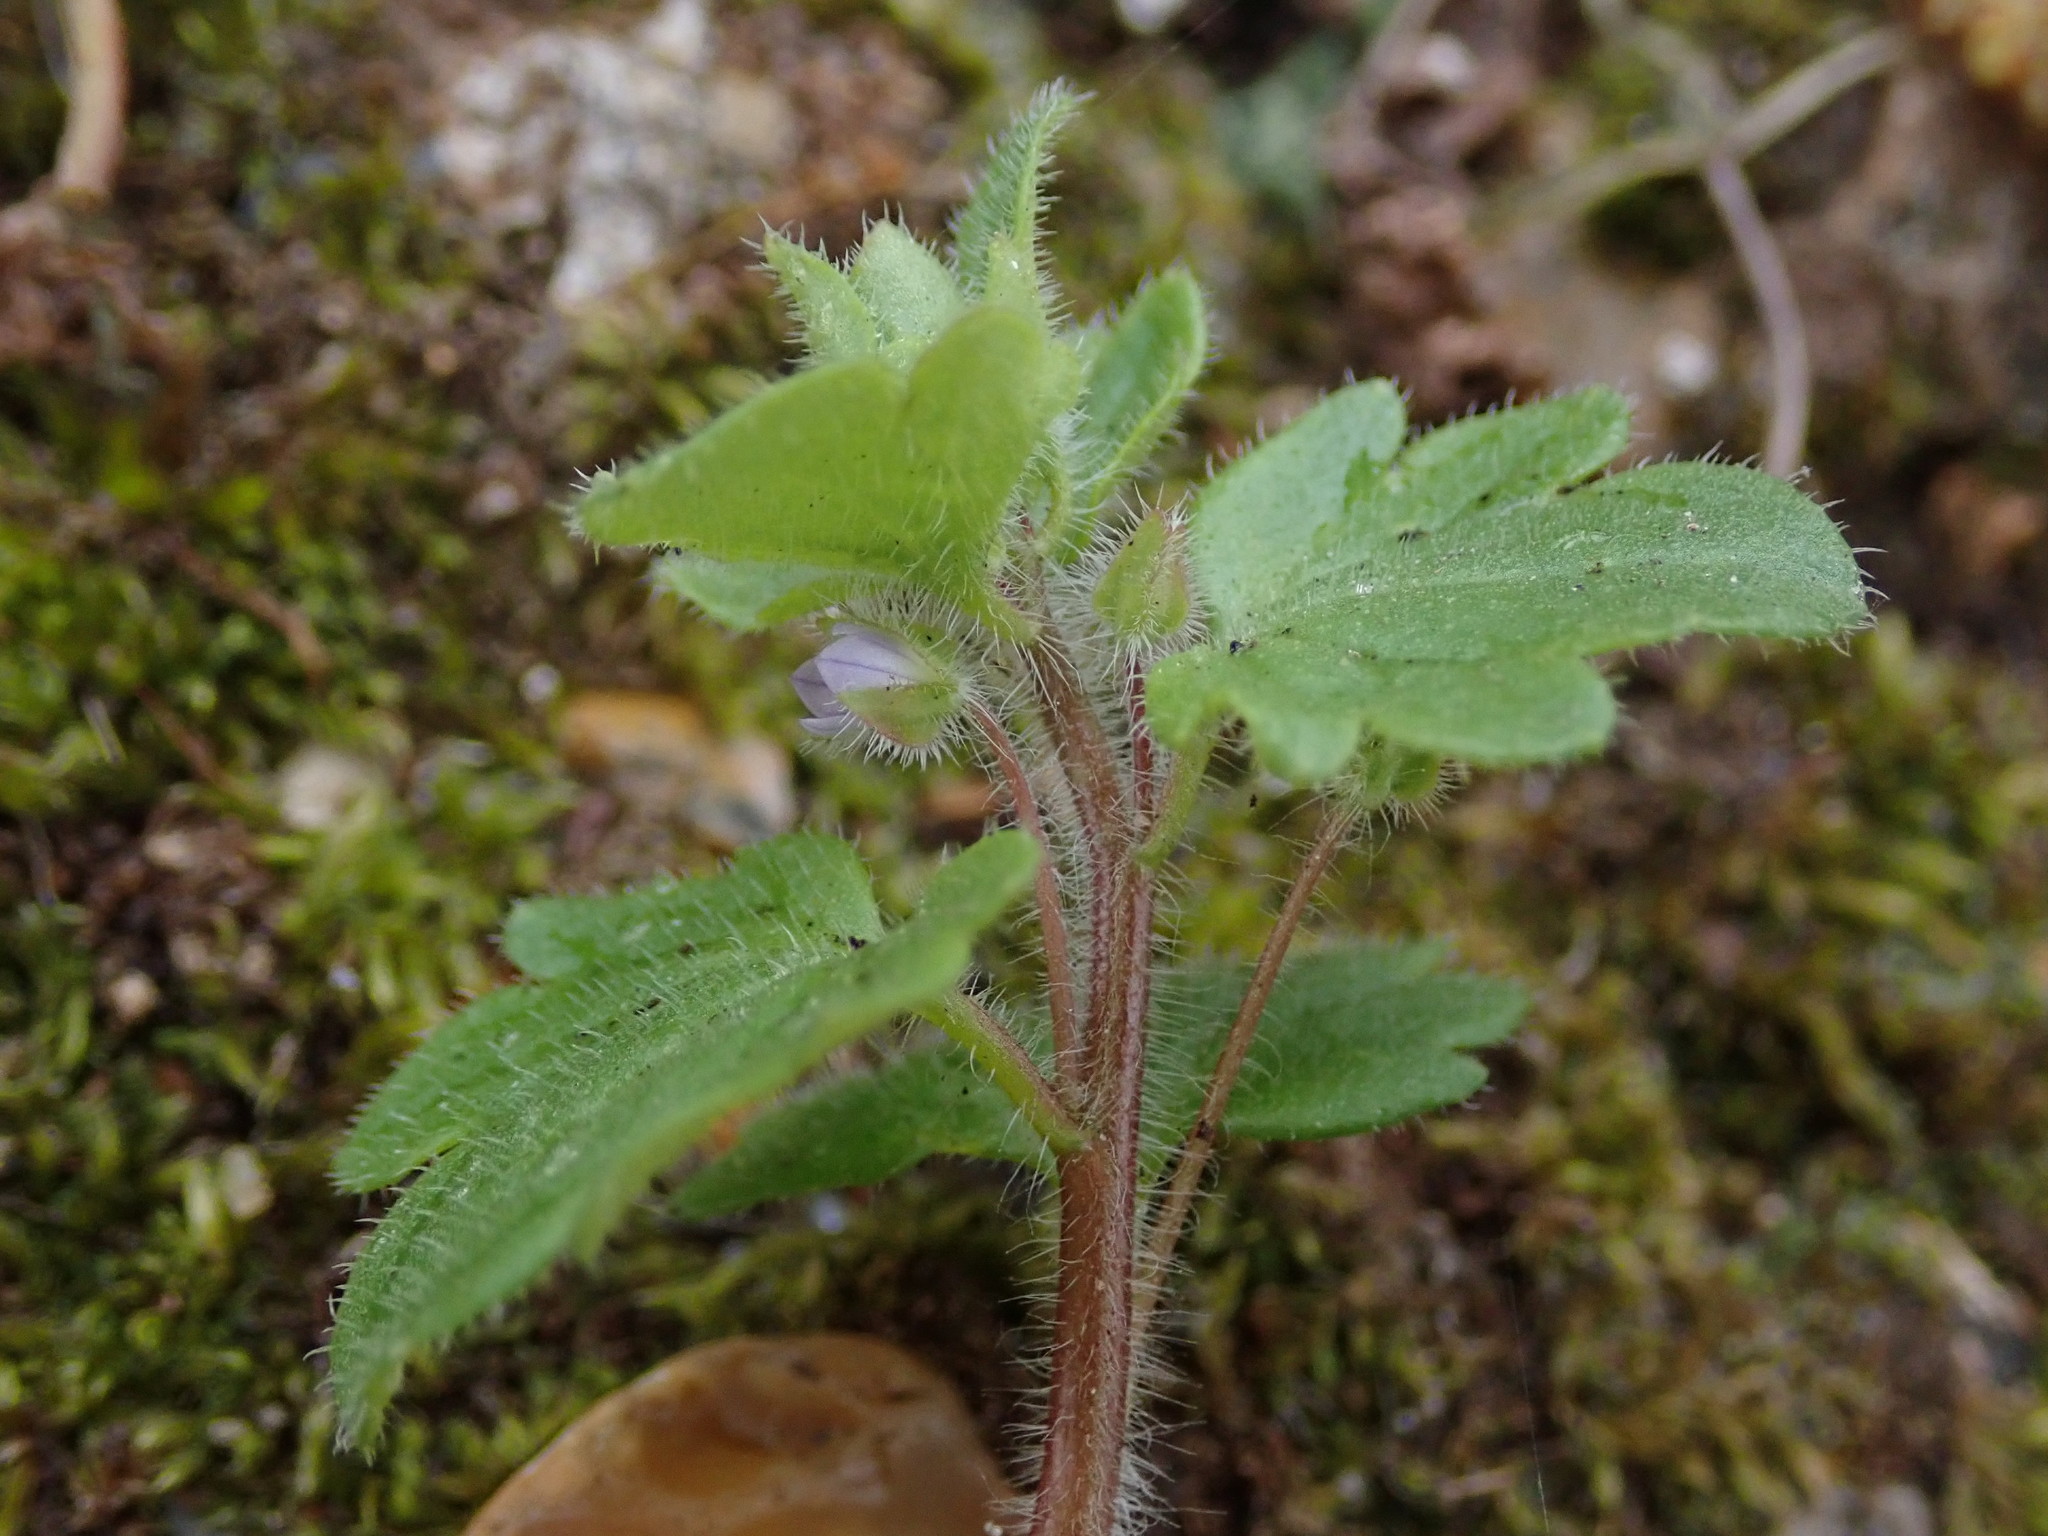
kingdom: Plantae
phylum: Tracheophyta
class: Magnoliopsida
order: Lamiales
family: Plantaginaceae
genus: Veronica
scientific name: Veronica sublobata
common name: False ivy-leaved speedwell
